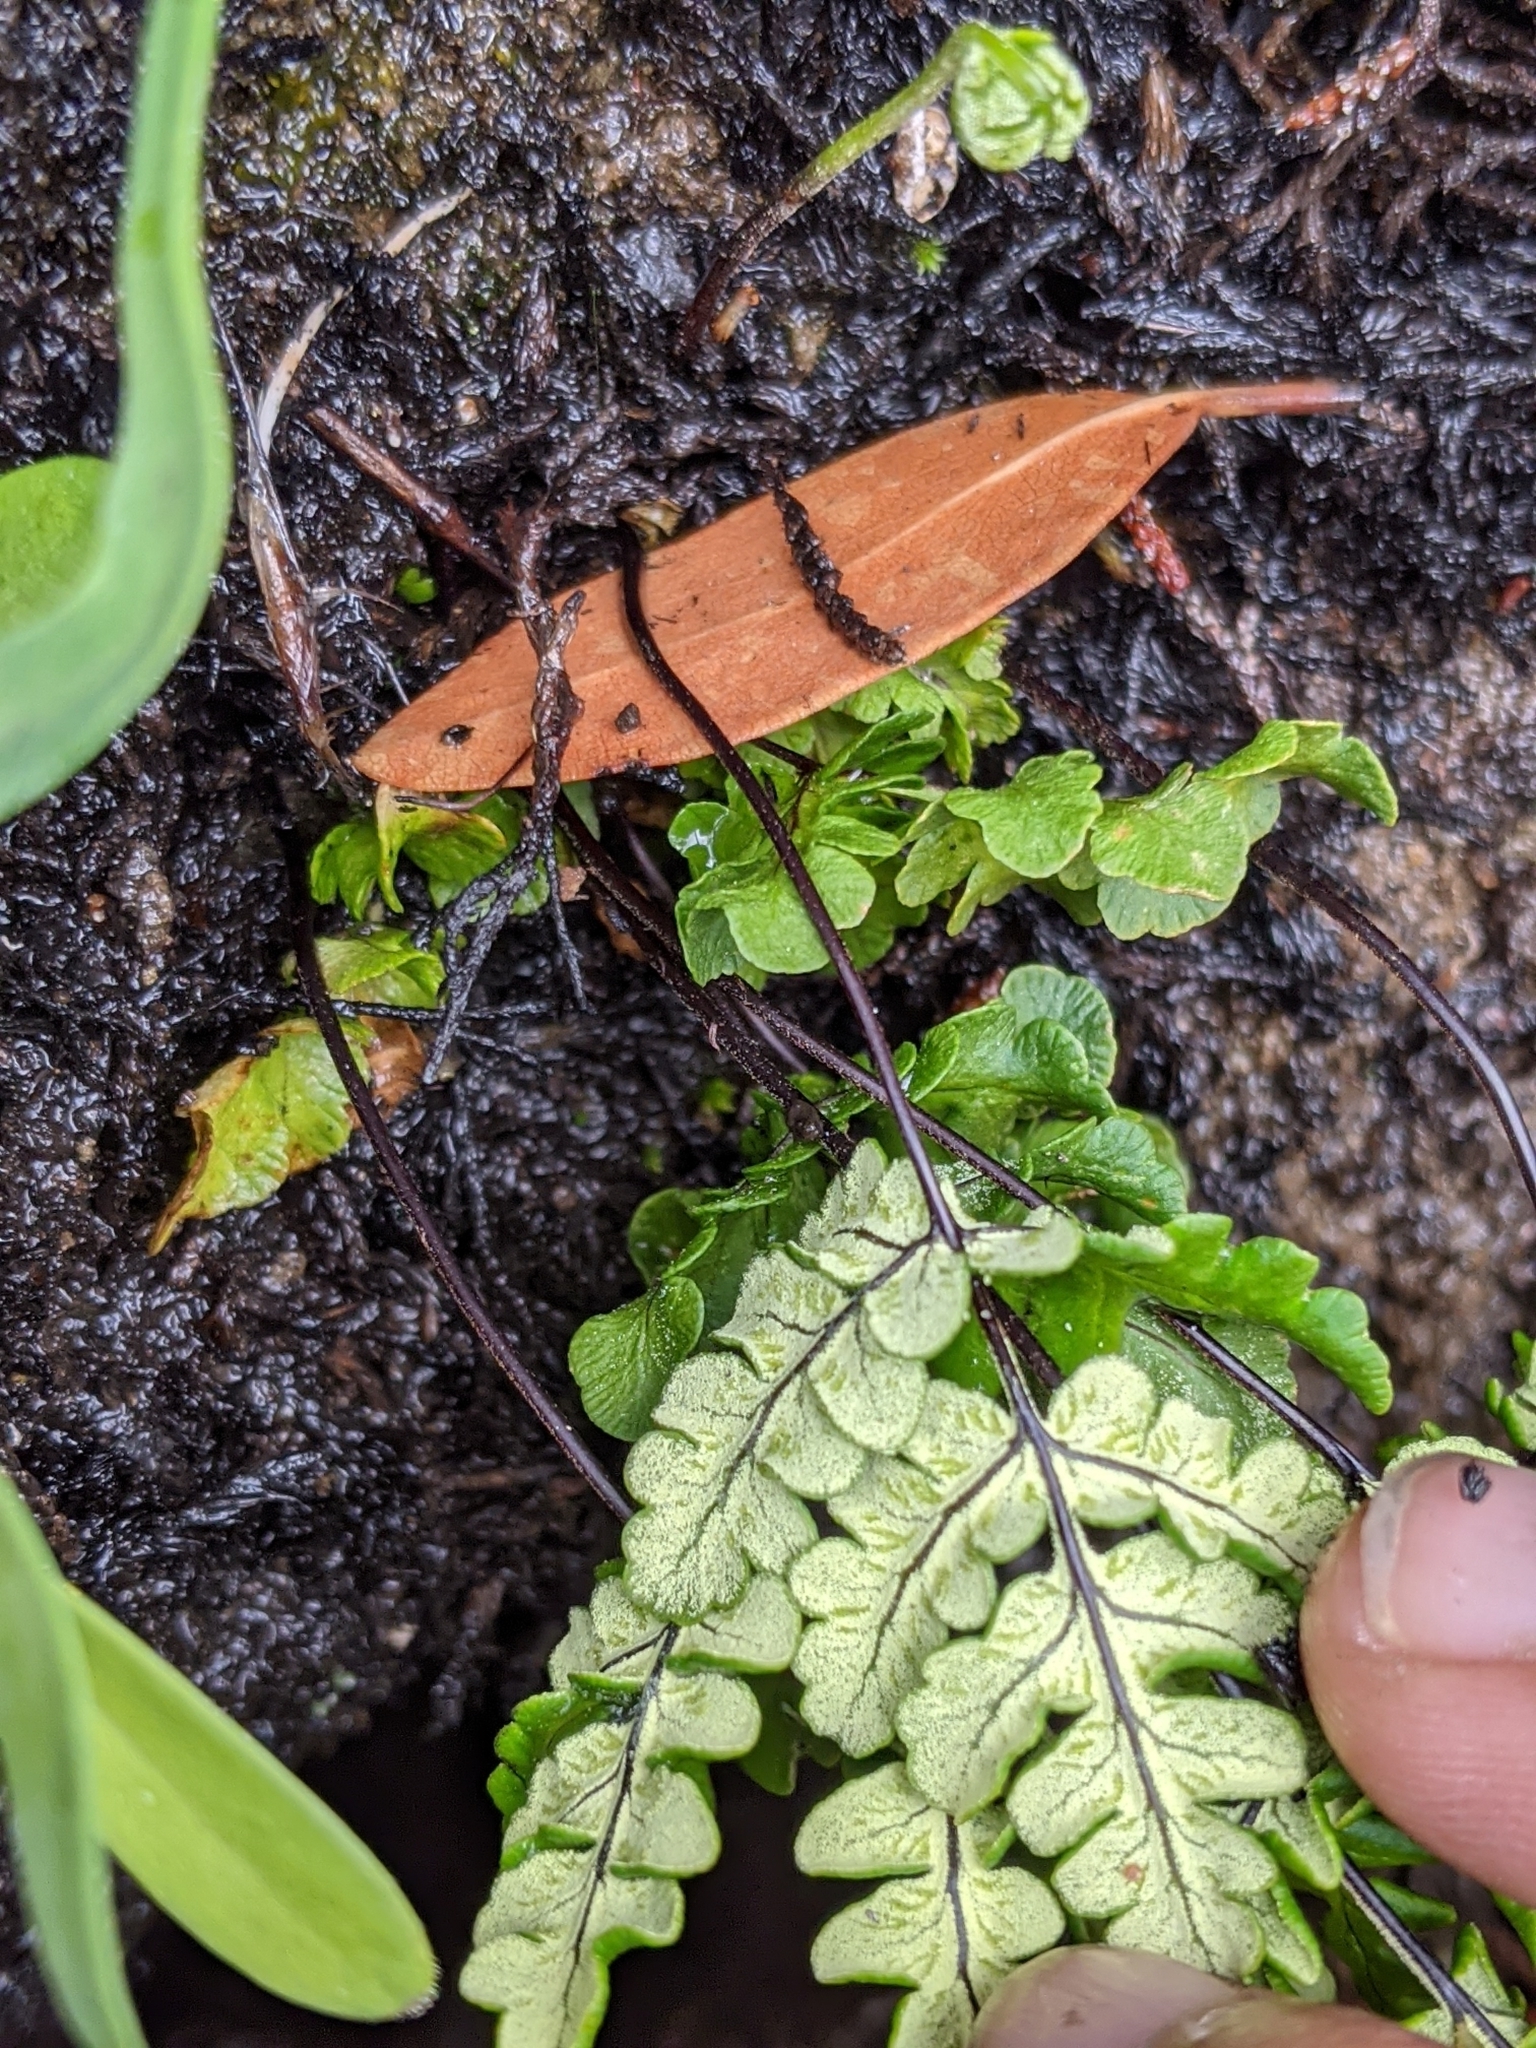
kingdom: Plantae
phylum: Tracheophyta
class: Polypodiopsida
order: Polypodiales
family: Pteridaceae
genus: Pentagramma
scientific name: Pentagramma triangularis
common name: Gold fern
